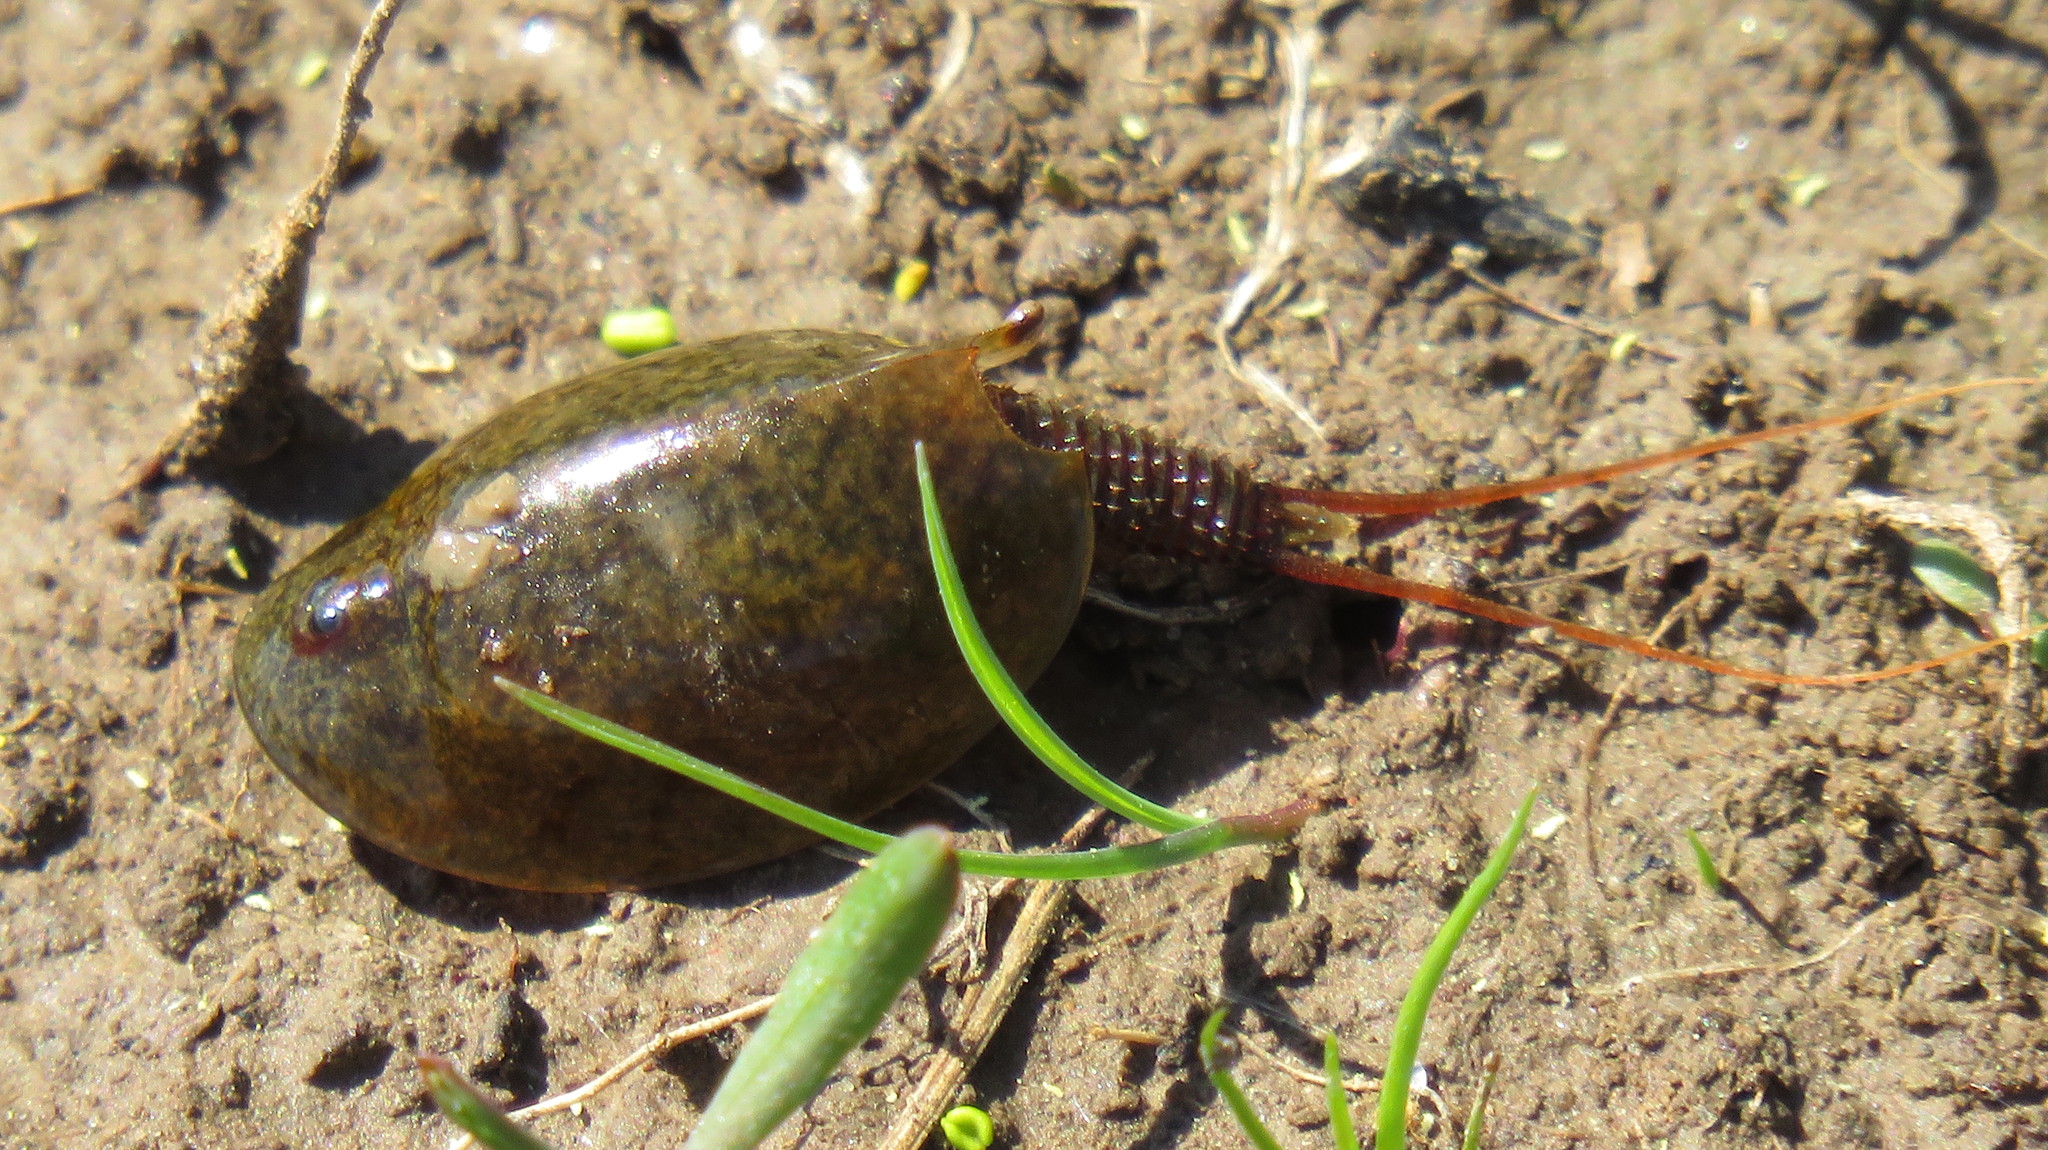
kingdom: Animalia
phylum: Arthropoda
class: Branchiopoda
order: Notostraca
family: Triopsidae
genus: Lepidurus
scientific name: Lepidurus apus
